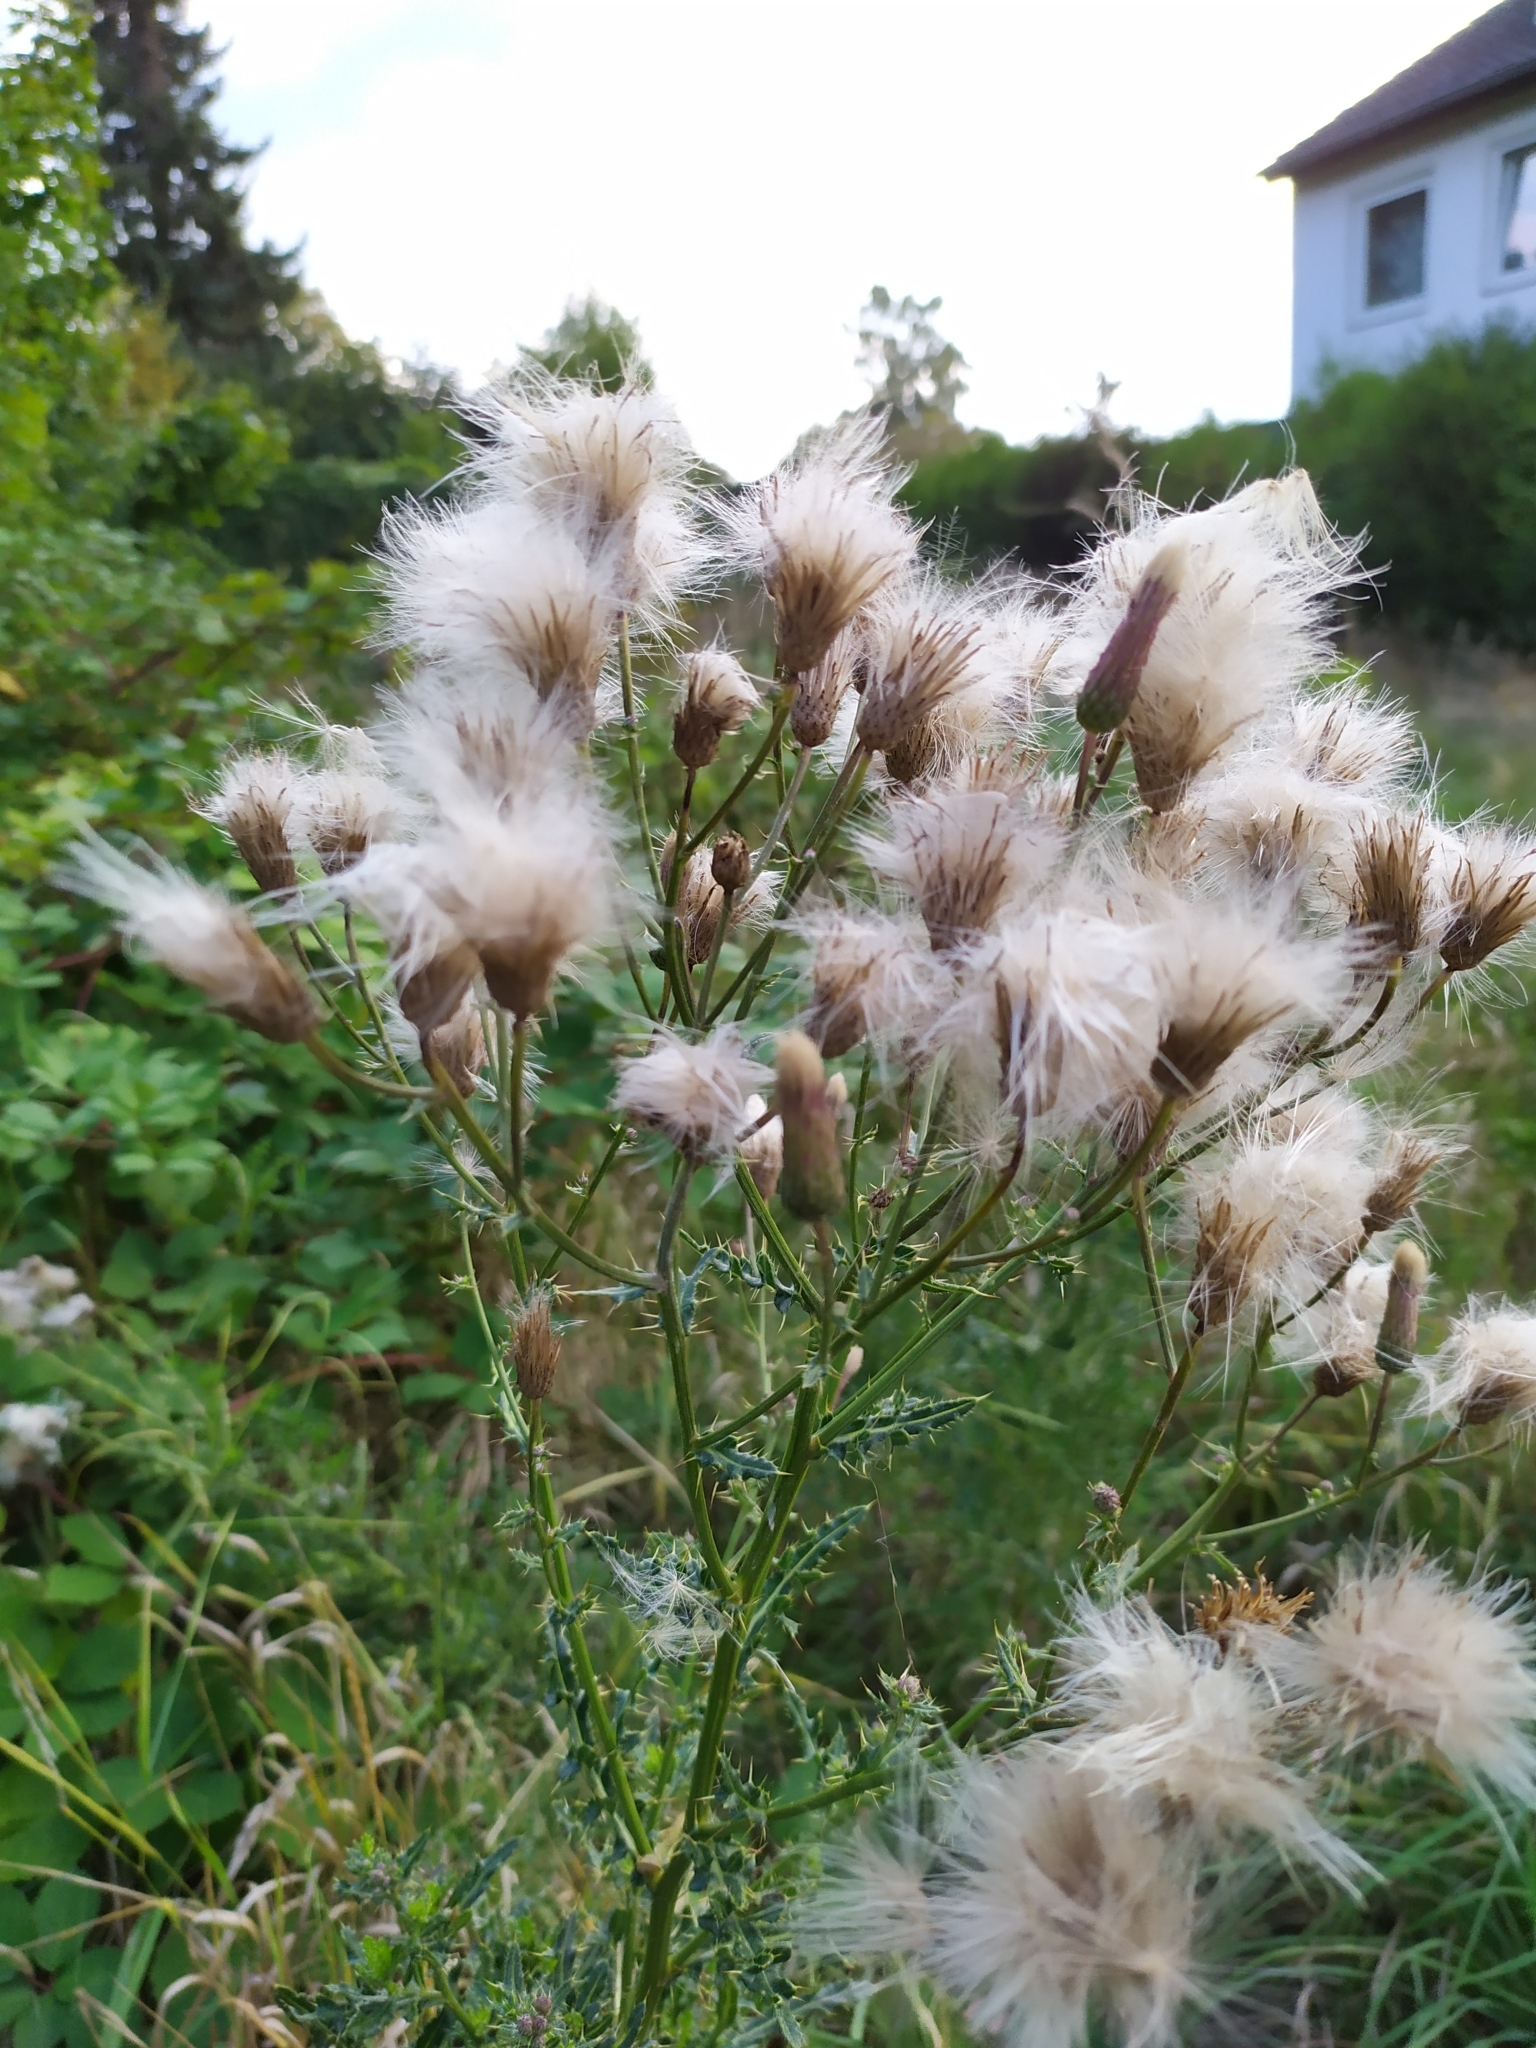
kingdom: Plantae
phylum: Tracheophyta
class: Magnoliopsida
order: Asterales
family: Asteraceae
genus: Cirsium
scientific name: Cirsium arvense
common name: Creeping thistle
